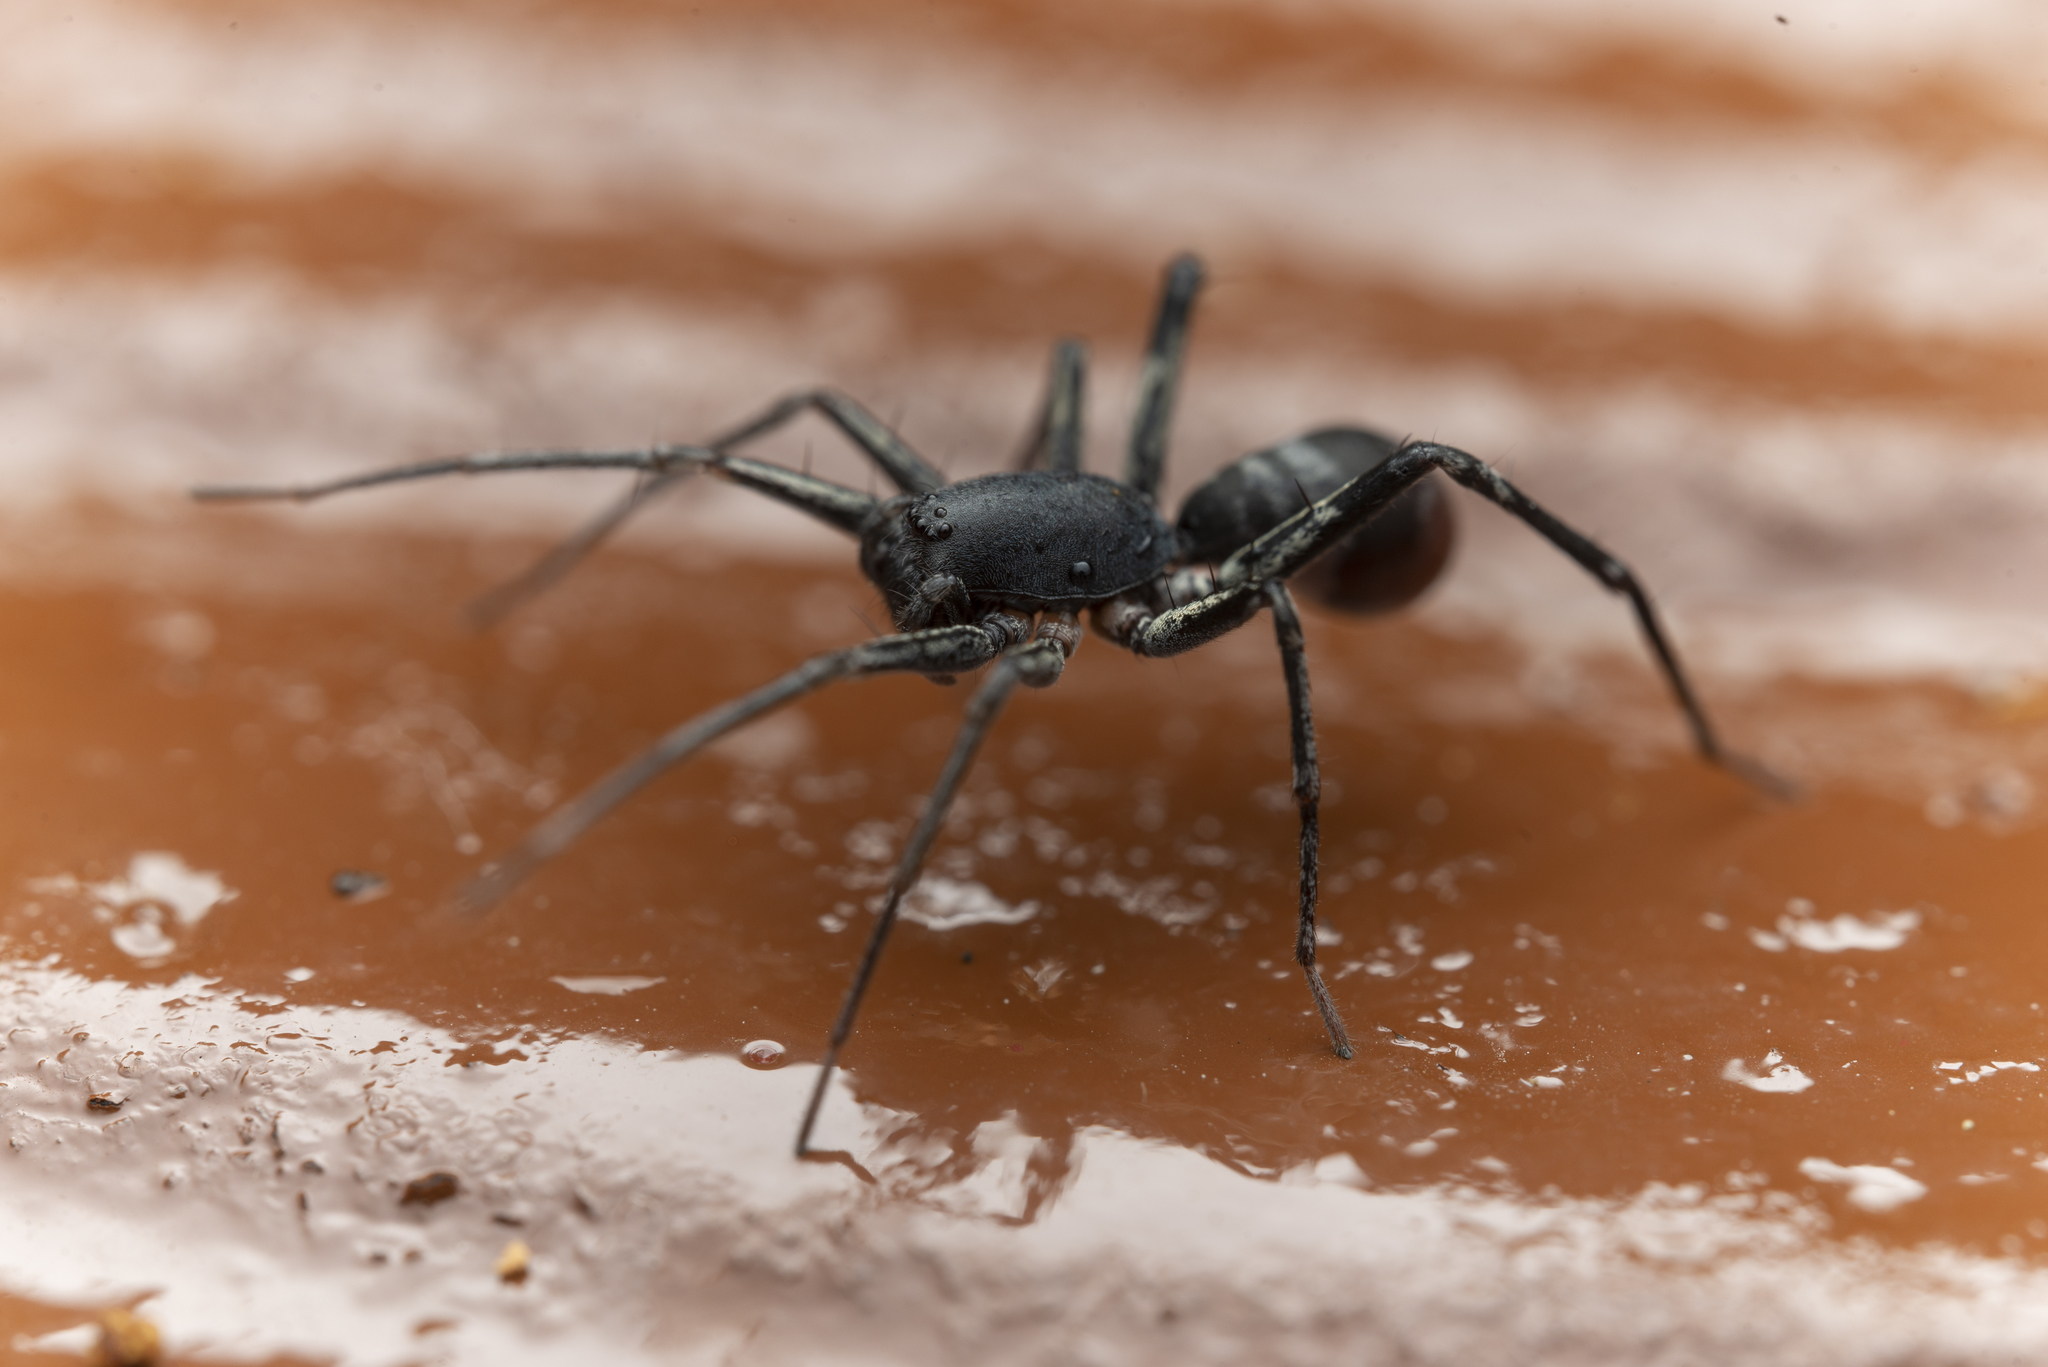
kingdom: Animalia
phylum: Arthropoda
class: Arachnida
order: Araneae
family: Corinnidae
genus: Corinnomma
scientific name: Corinnomma severum
